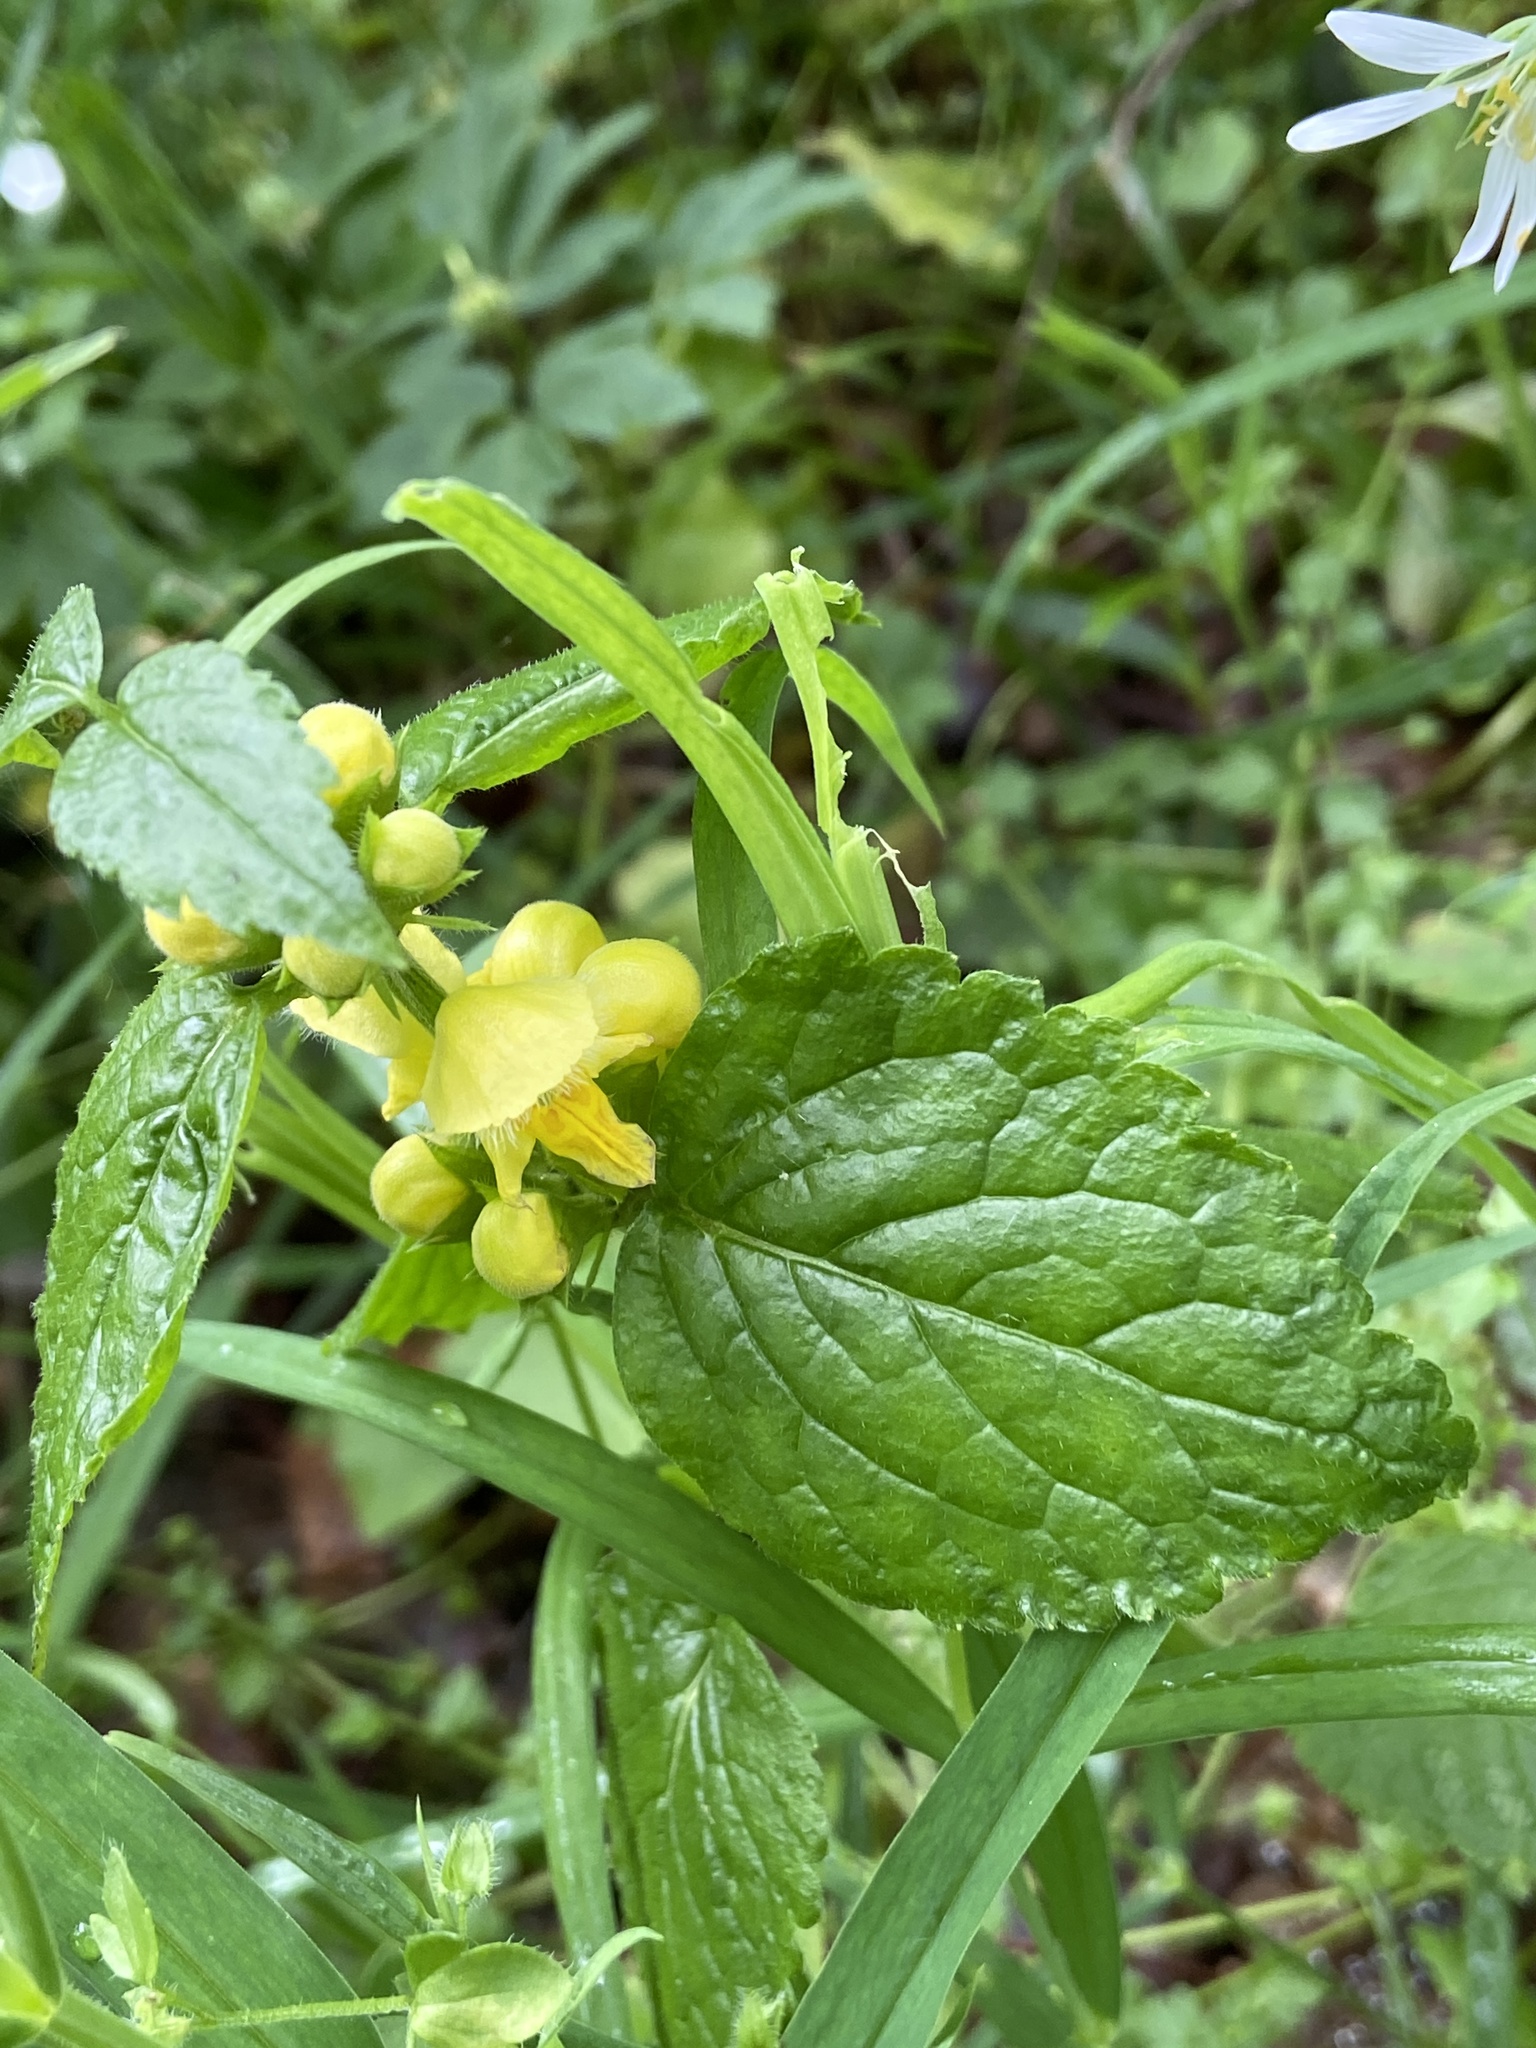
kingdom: Plantae
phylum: Tracheophyta
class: Magnoliopsida
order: Lamiales
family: Lamiaceae
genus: Lamium
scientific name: Lamium galeobdolon
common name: Yellow archangel
